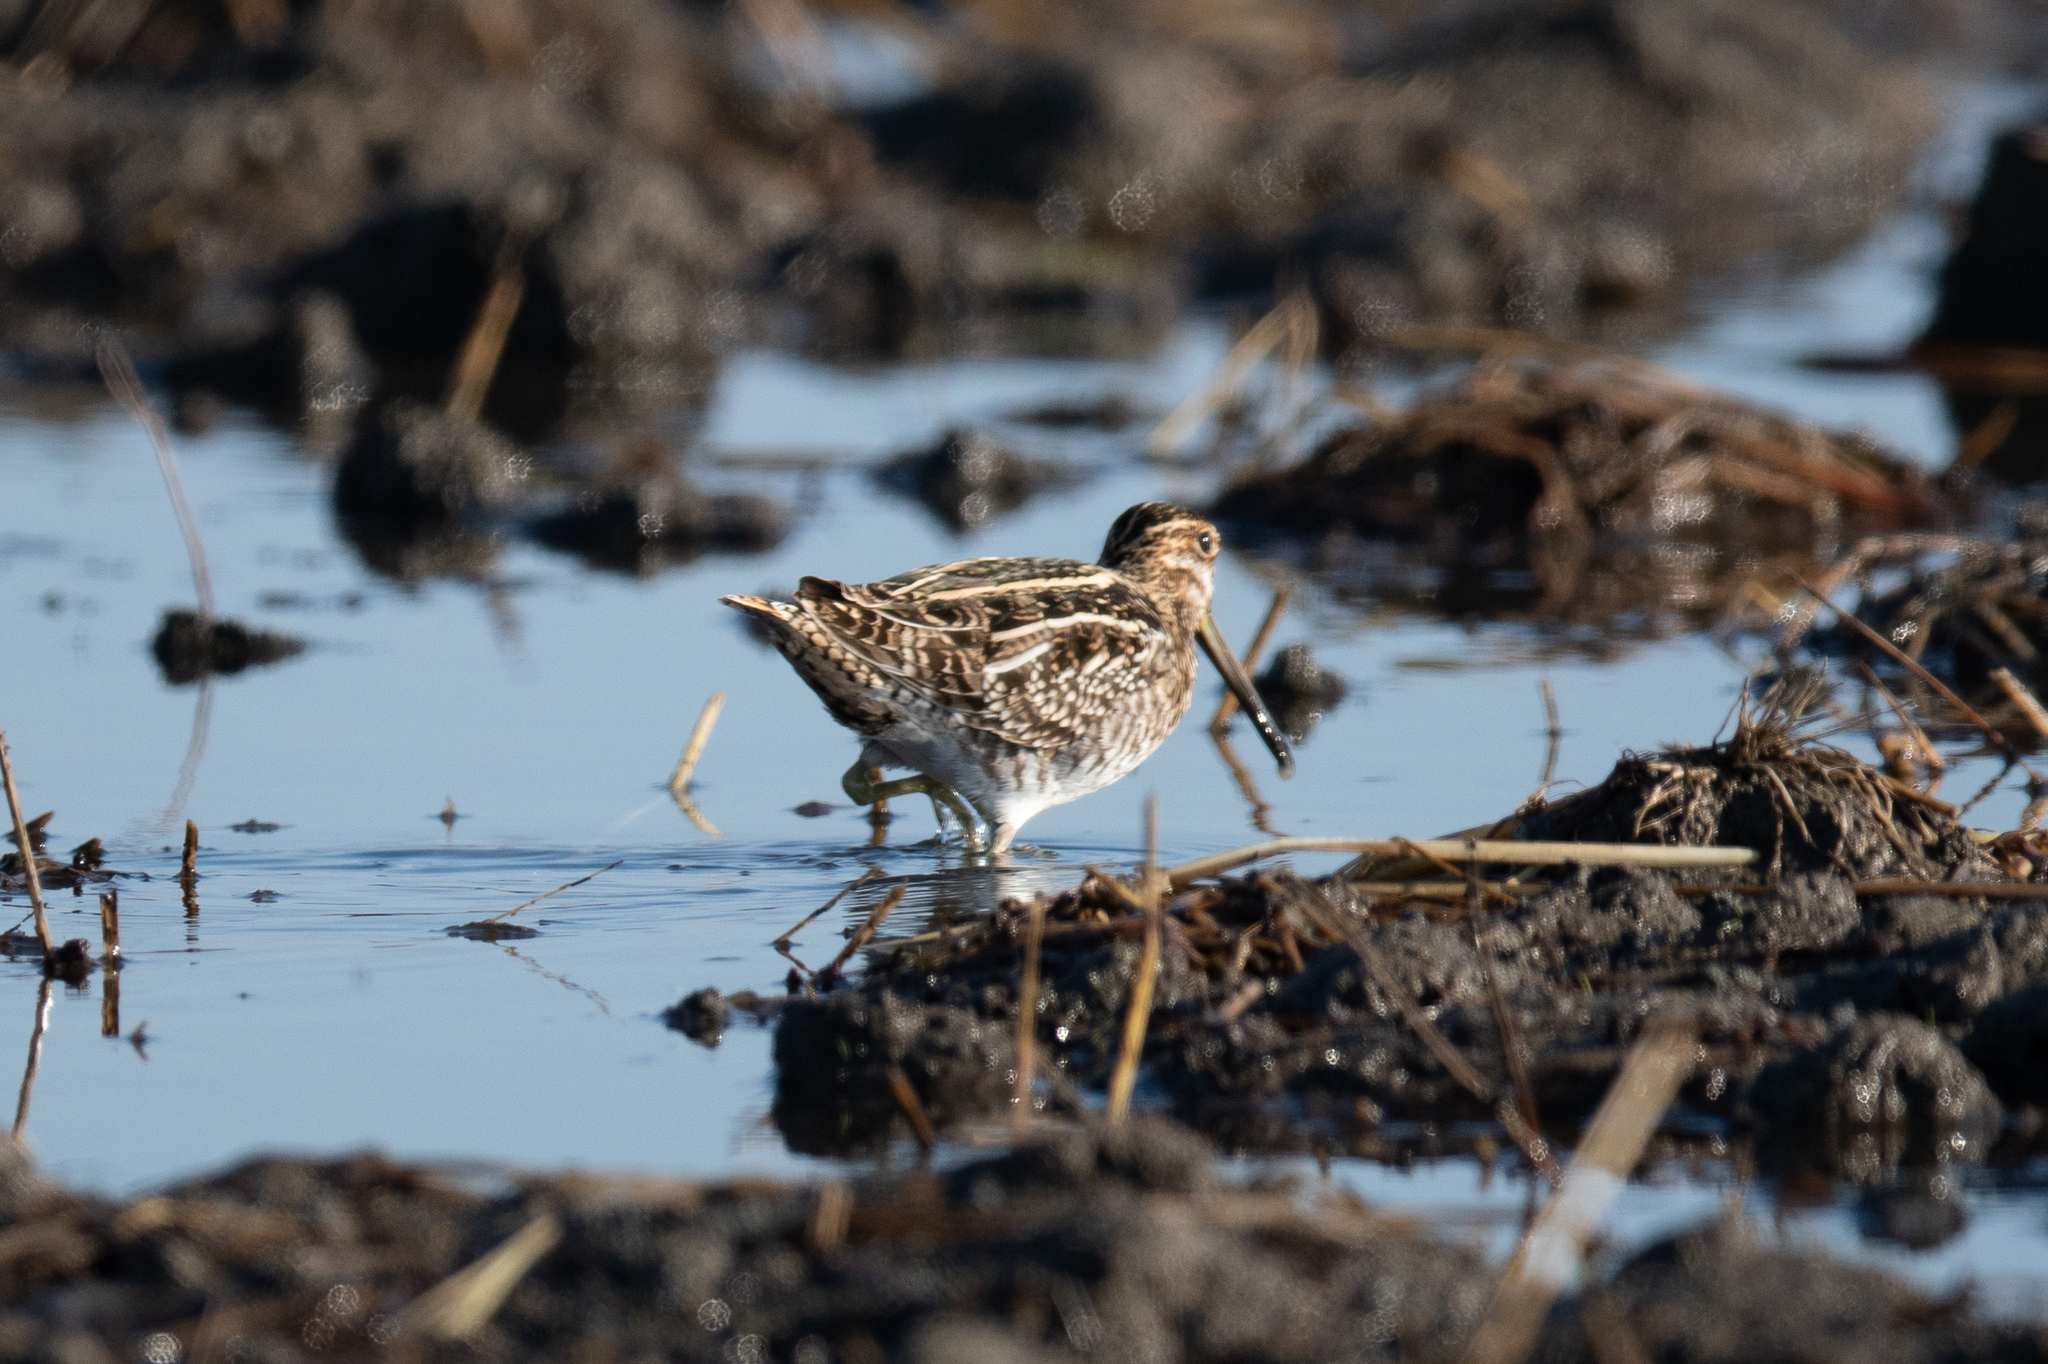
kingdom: Animalia
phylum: Chordata
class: Aves
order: Charadriiformes
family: Scolopacidae
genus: Gallinago
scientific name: Gallinago delicata
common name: Wilson's snipe
